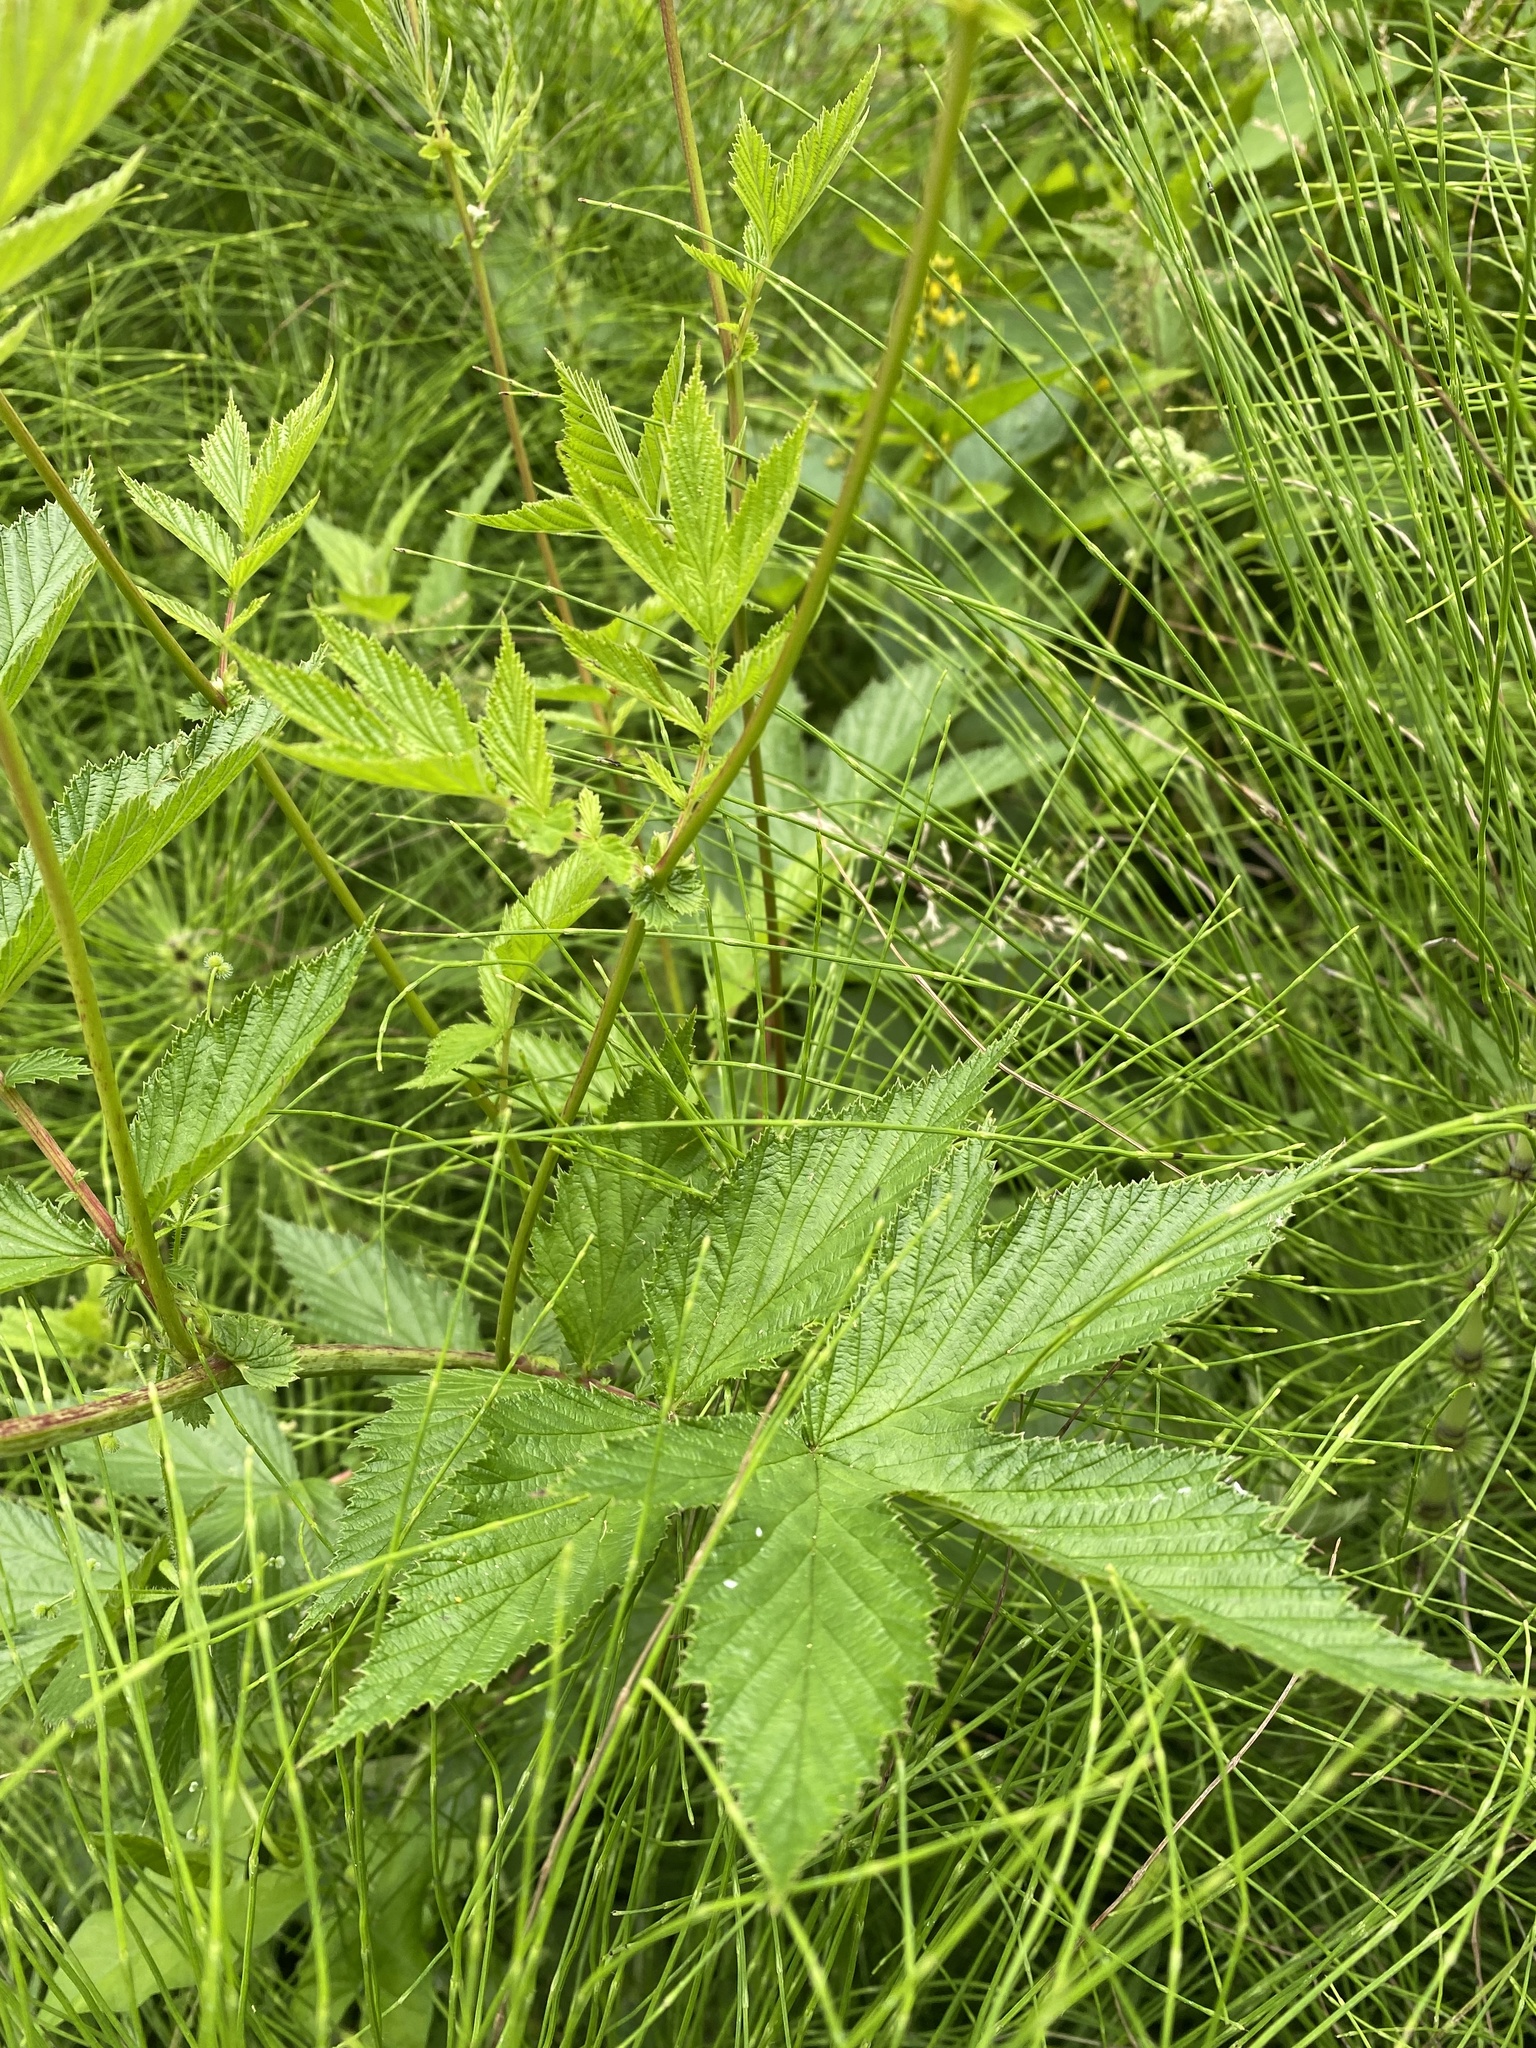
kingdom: Plantae
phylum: Tracheophyta
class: Magnoliopsida
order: Rosales
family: Rosaceae
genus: Filipendula
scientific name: Filipendula ulmaria
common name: Meadowsweet
